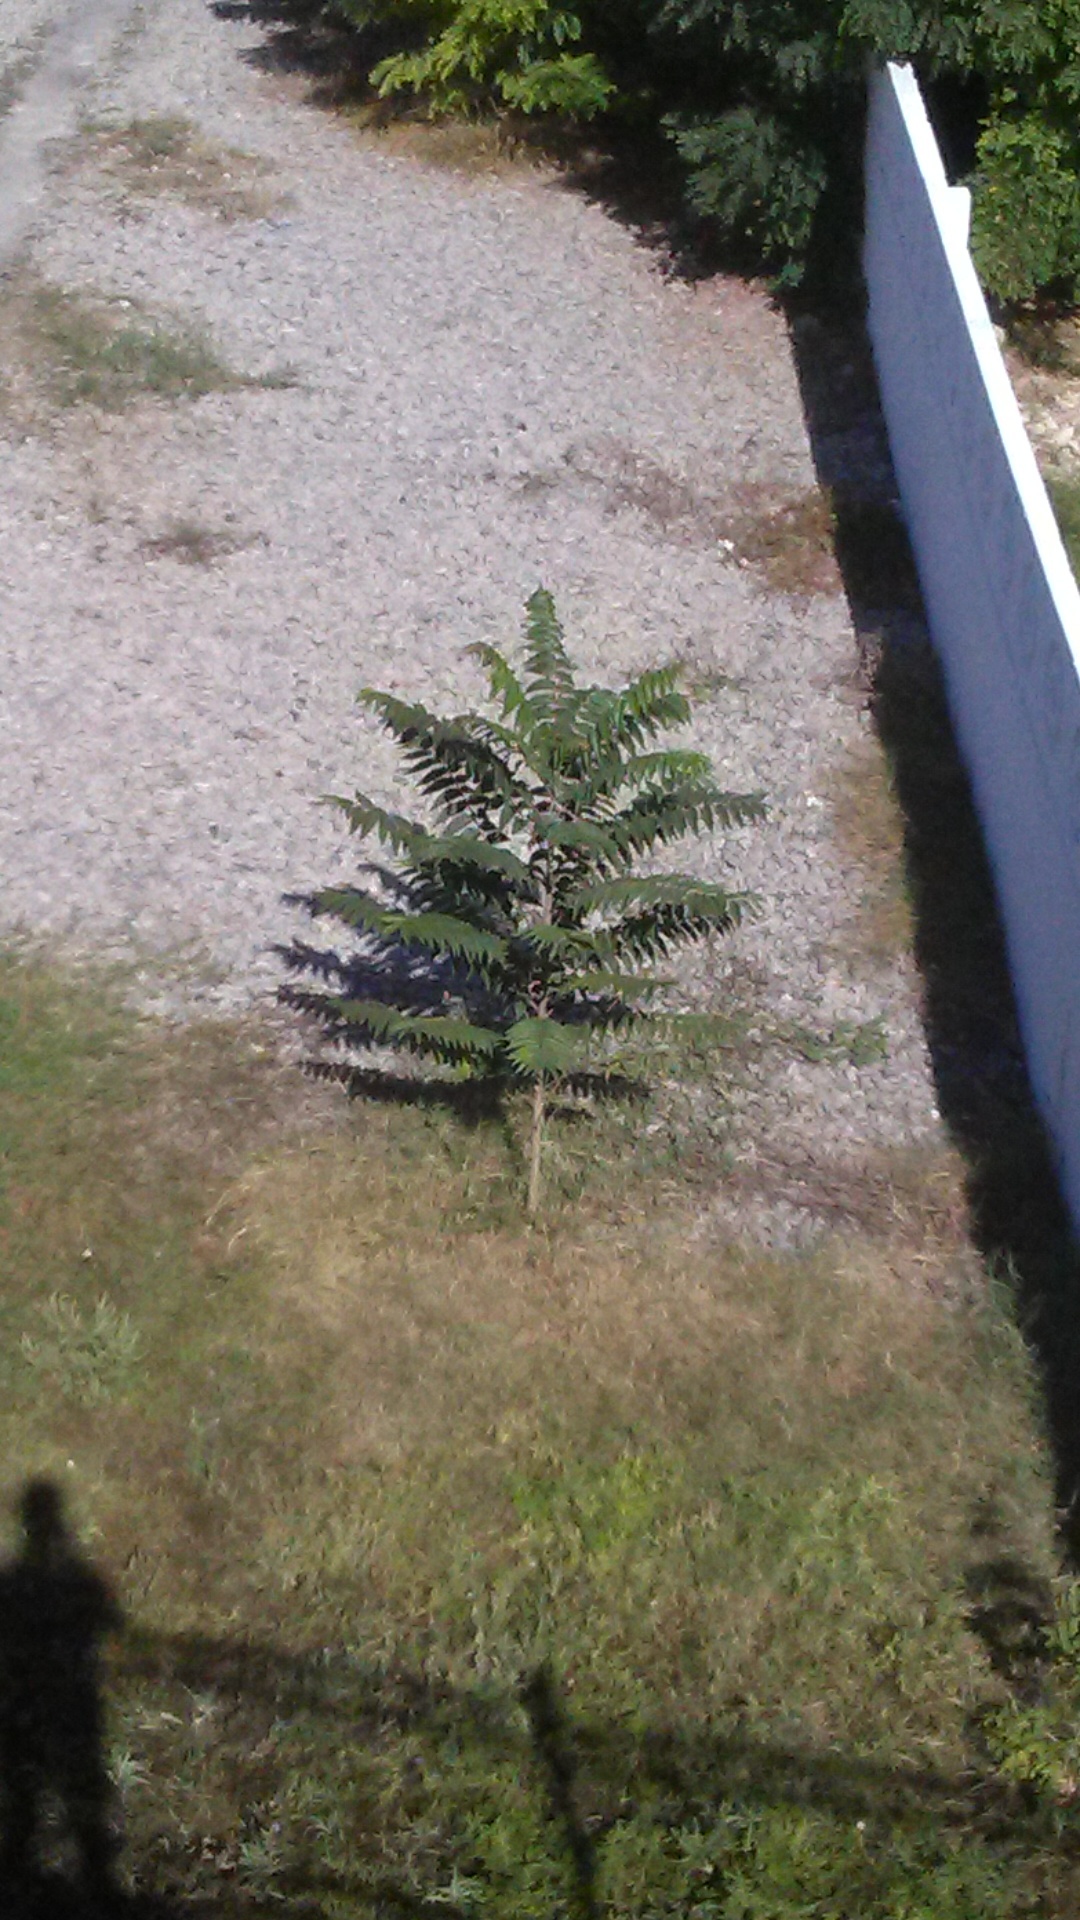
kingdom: Plantae
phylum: Tracheophyta
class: Magnoliopsida
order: Sapindales
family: Simaroubaceae
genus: Ailanthus
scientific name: Ailanthus altissima
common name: Tree-of-heaven
